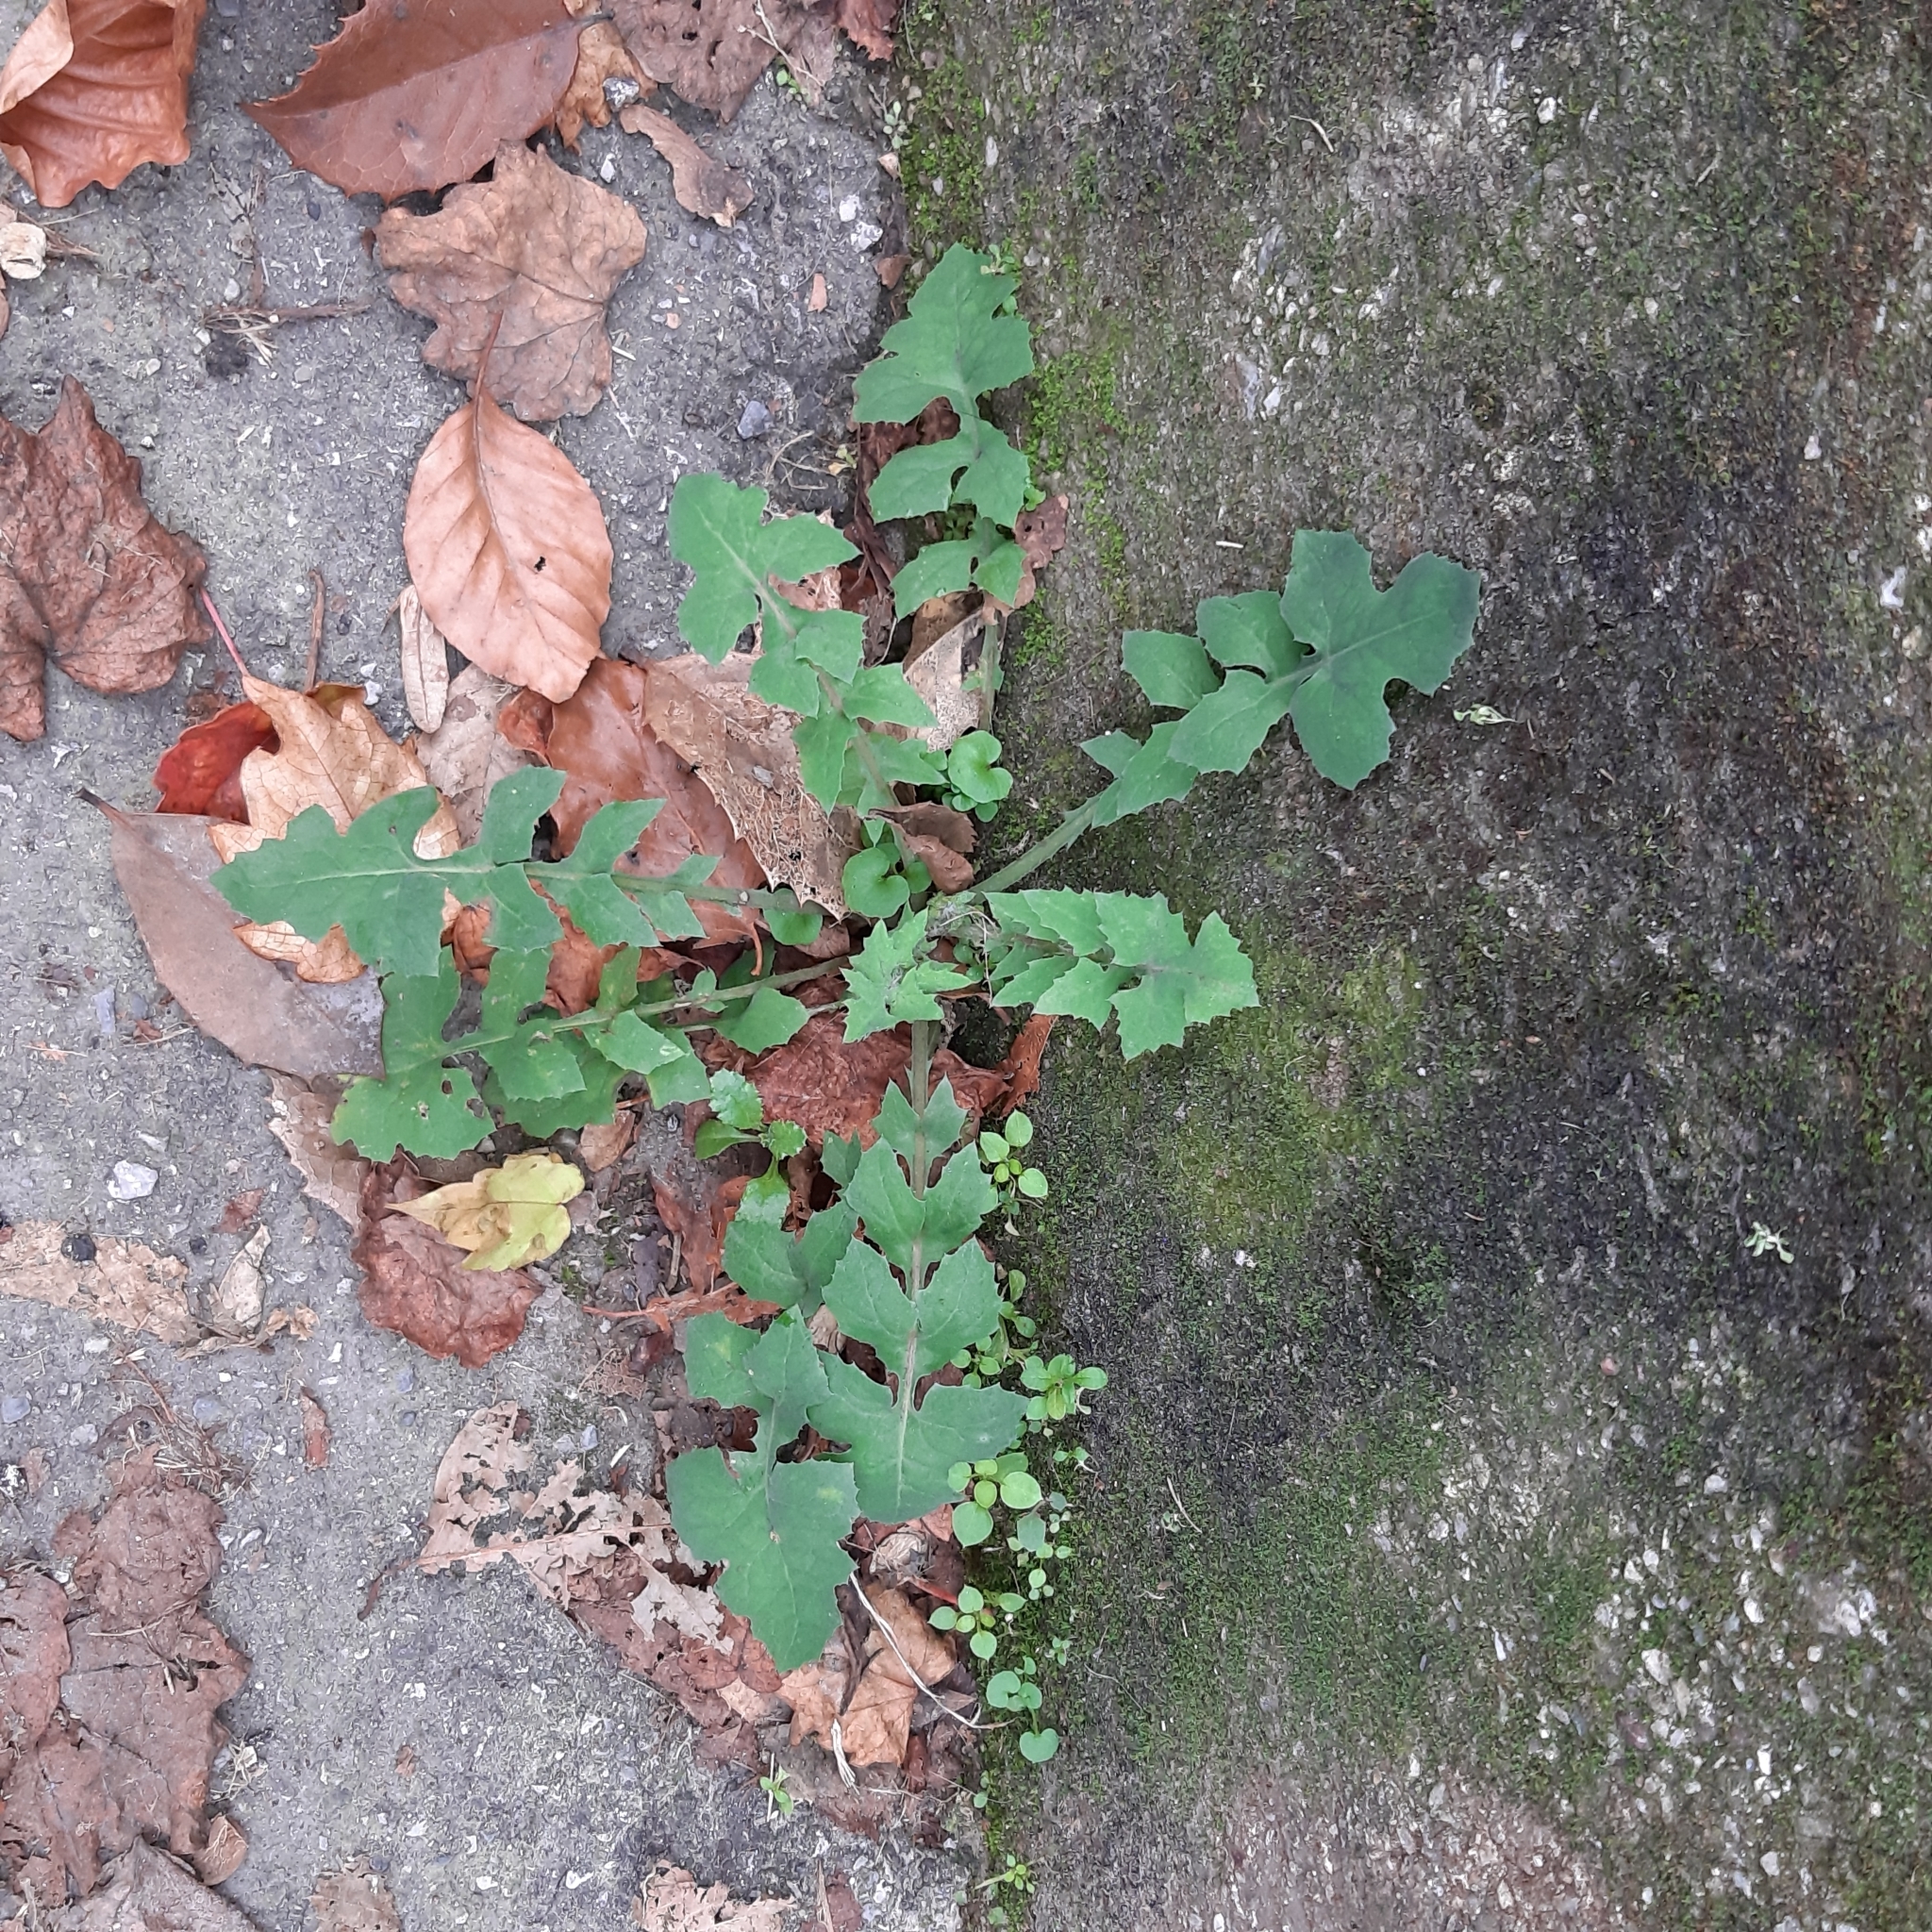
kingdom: Plantae
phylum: Tracheophyta
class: Magnoliopsida
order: Asterales
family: Asteraceae
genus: Sonchus
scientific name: Sonchus oleraceus
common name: Common sowthistle
